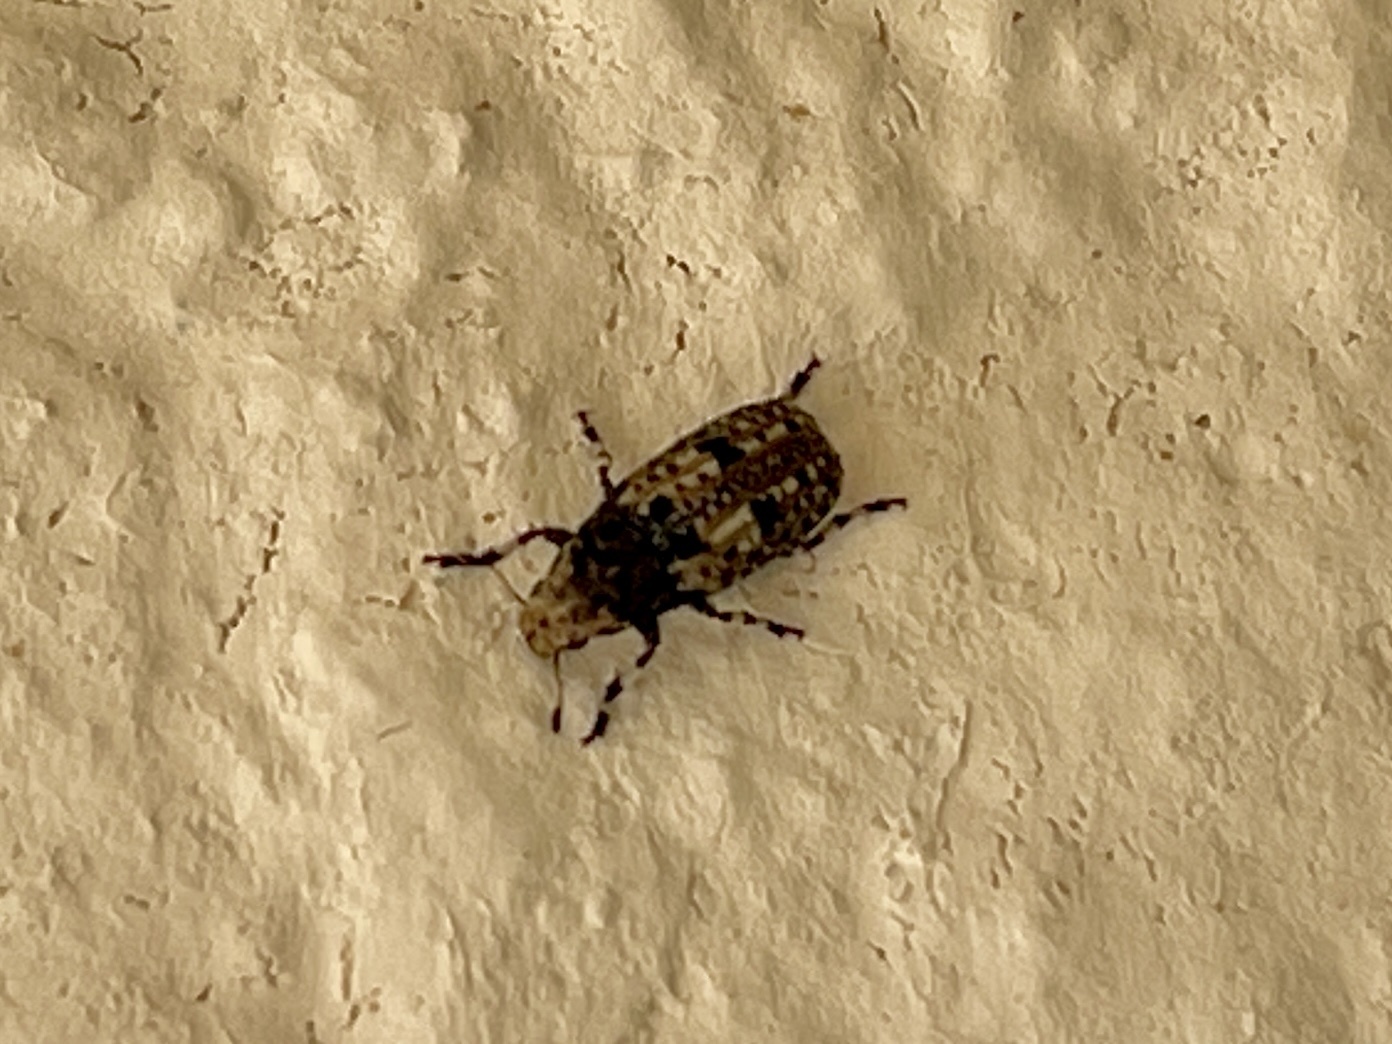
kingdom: Animalia
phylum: Arthropoda
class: Insecta
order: Coleoptera
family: Anthribidae
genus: Euparius
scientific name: Euparius marmoreus
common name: Marbled fungus weevil
